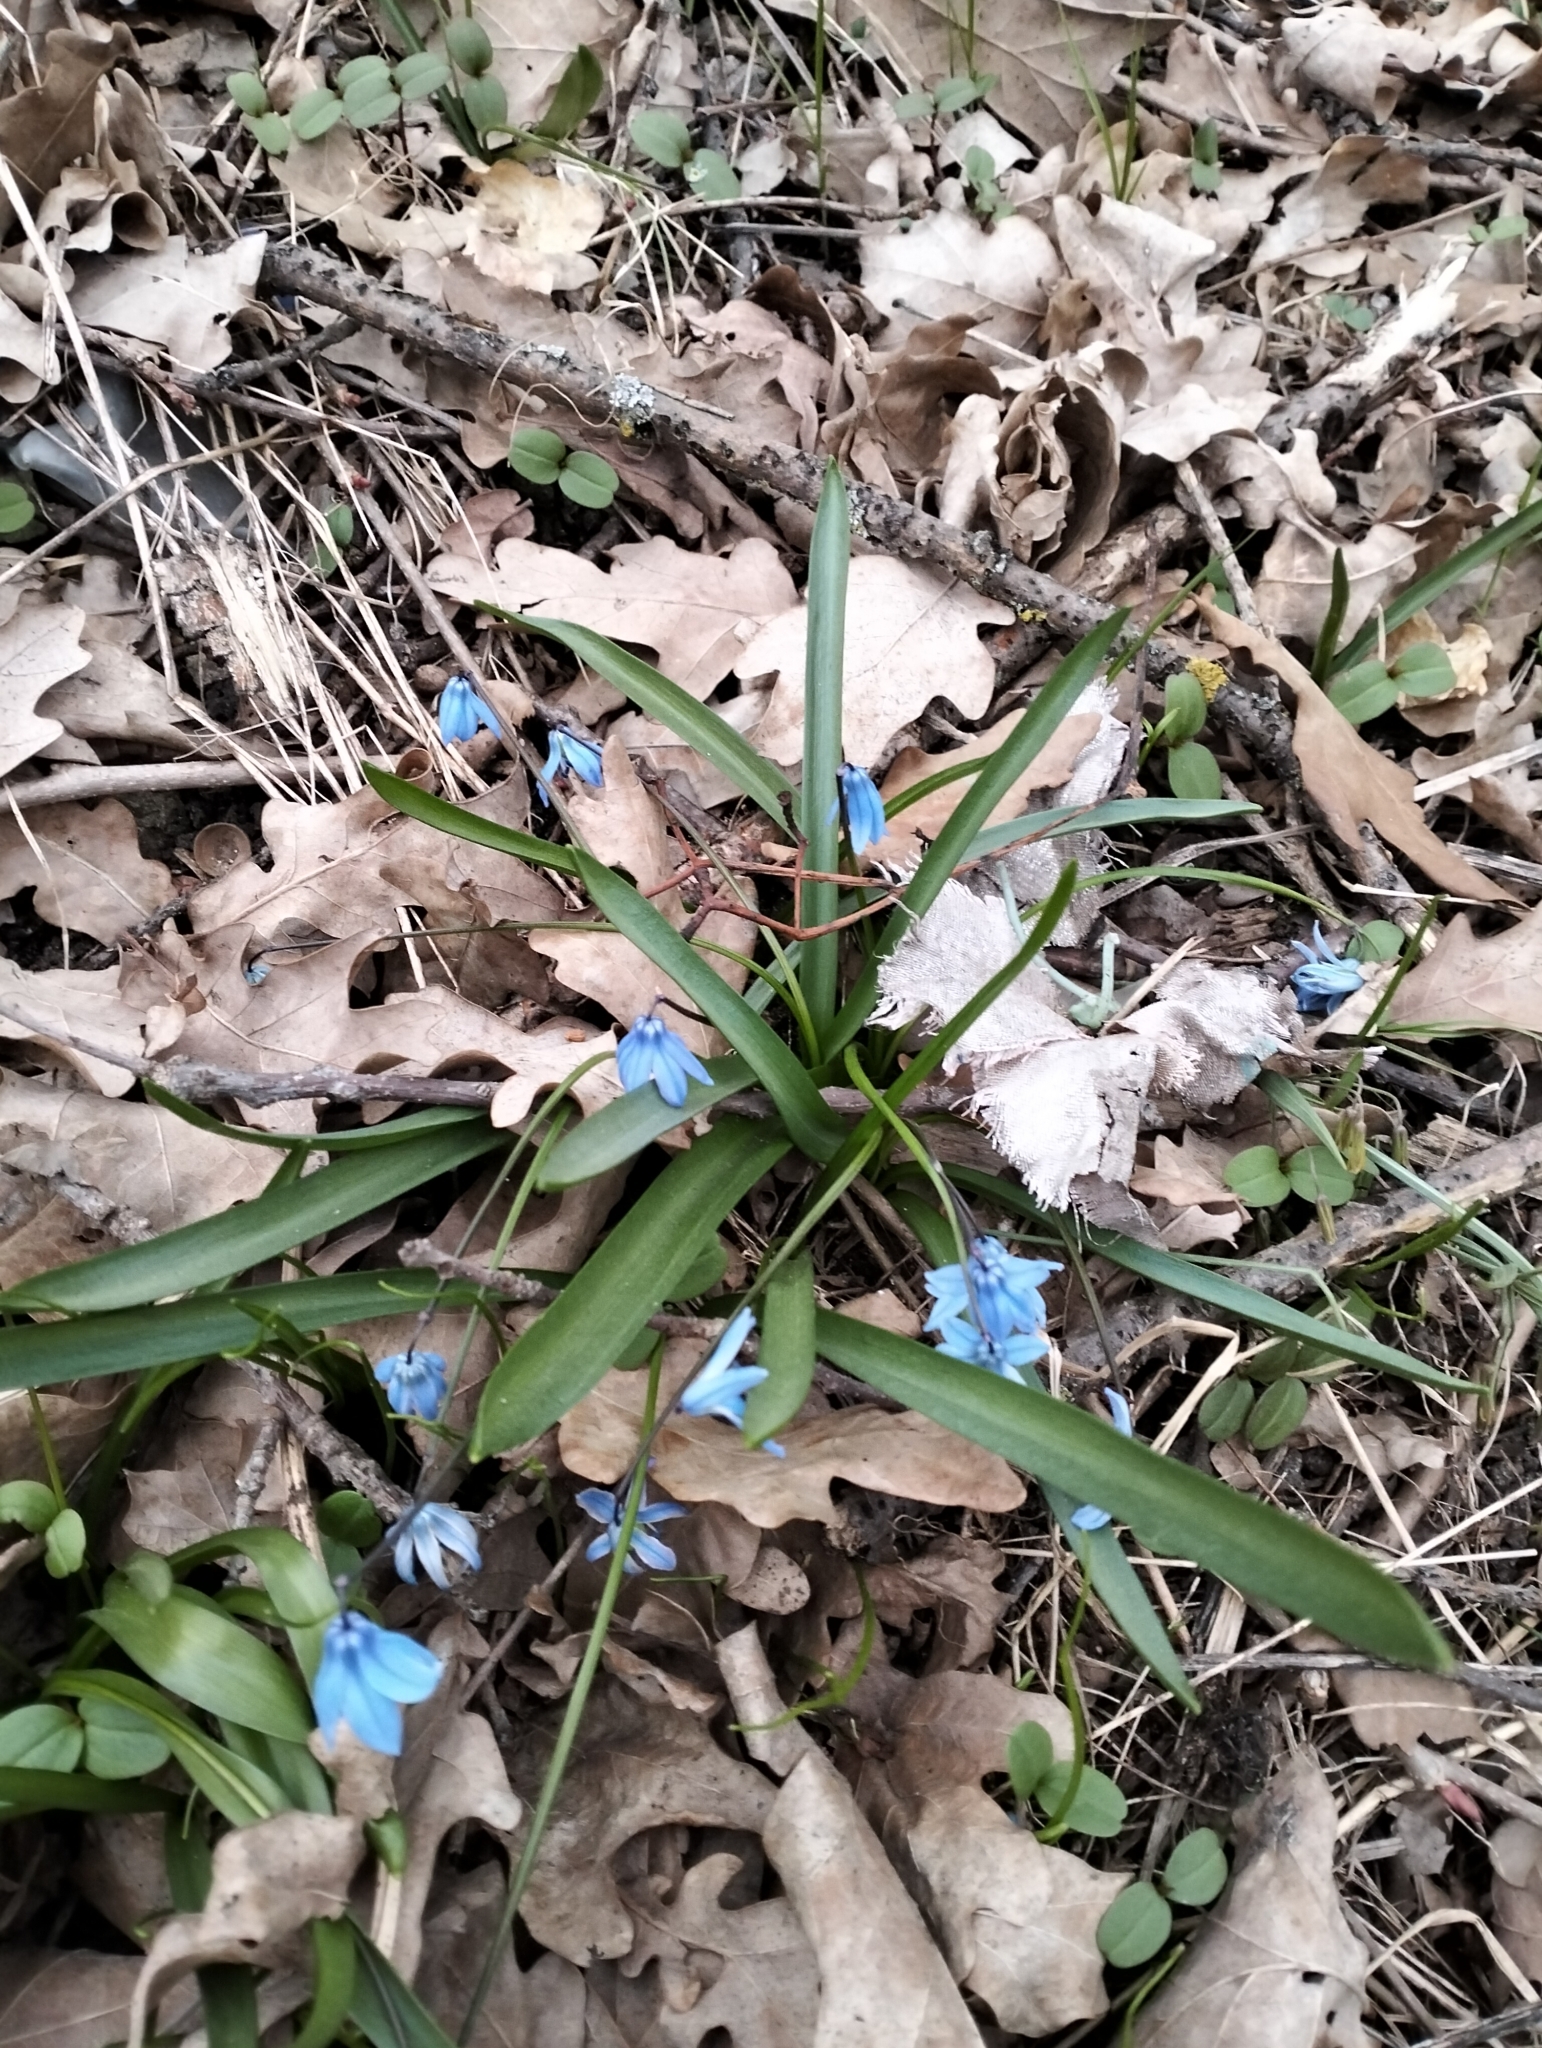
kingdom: Plantae
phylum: Tracheophyta
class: Liliopsida
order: Asparagales
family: Asparagaceae
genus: Scilla
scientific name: Scilla siberica
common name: Siberian squill
